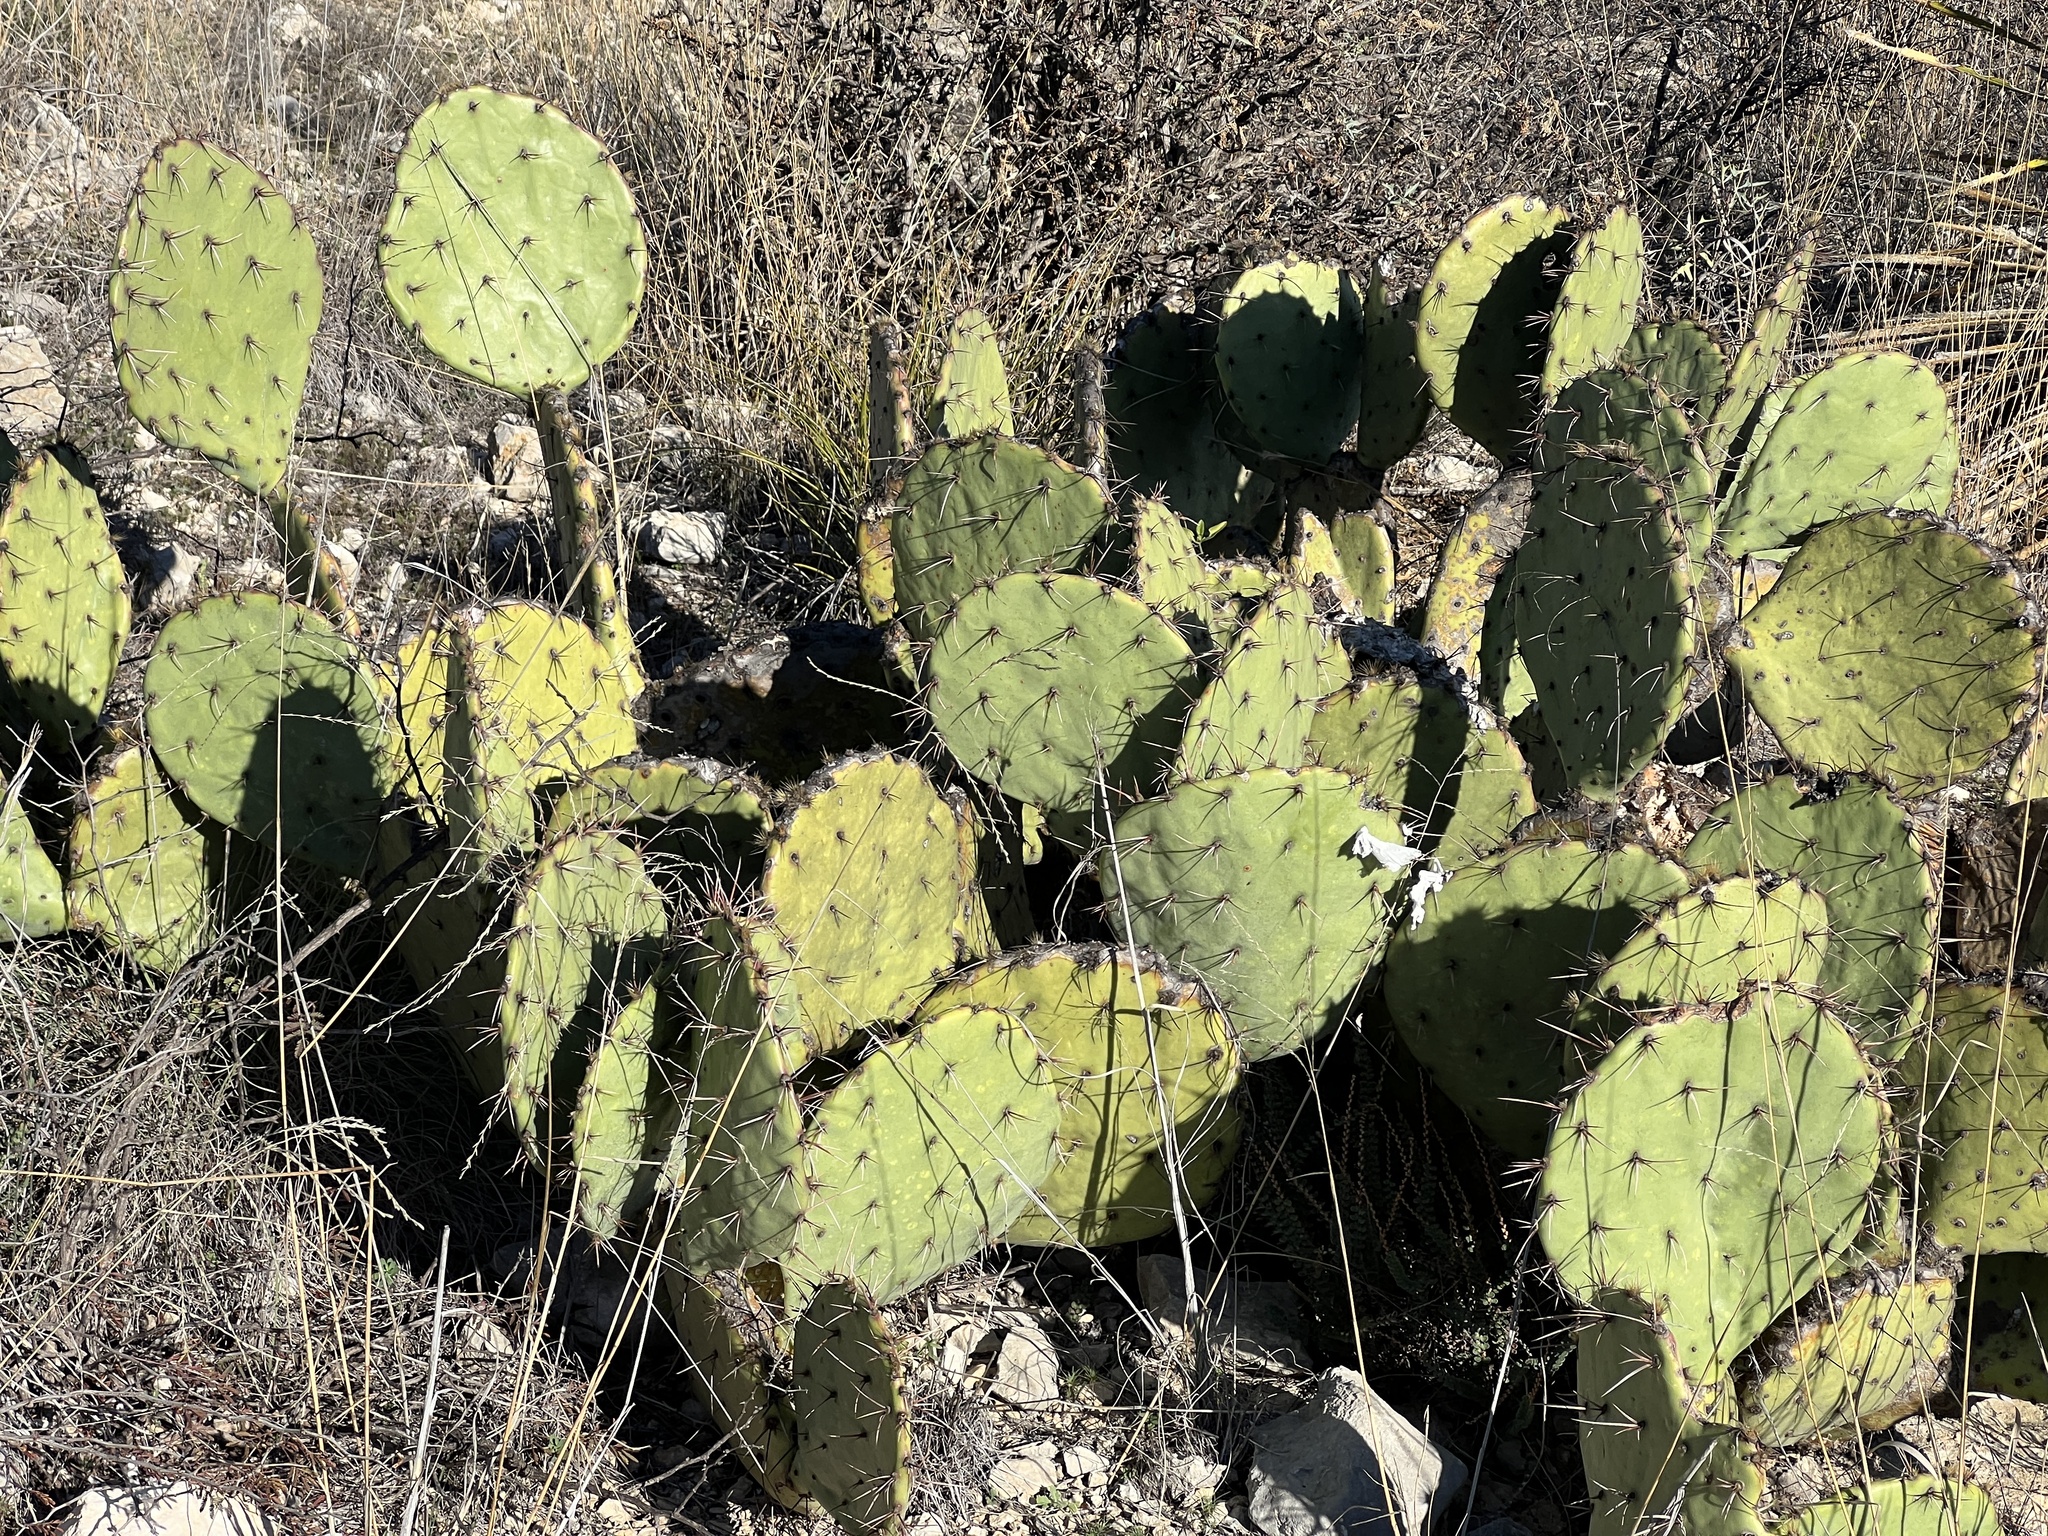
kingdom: Plantae
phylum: Tracheophyta
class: Magnoliopsida
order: Caryophyllales
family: Cactaceae
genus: Opuntia
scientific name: Opuntia engelmannii
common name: Cactus-apple
